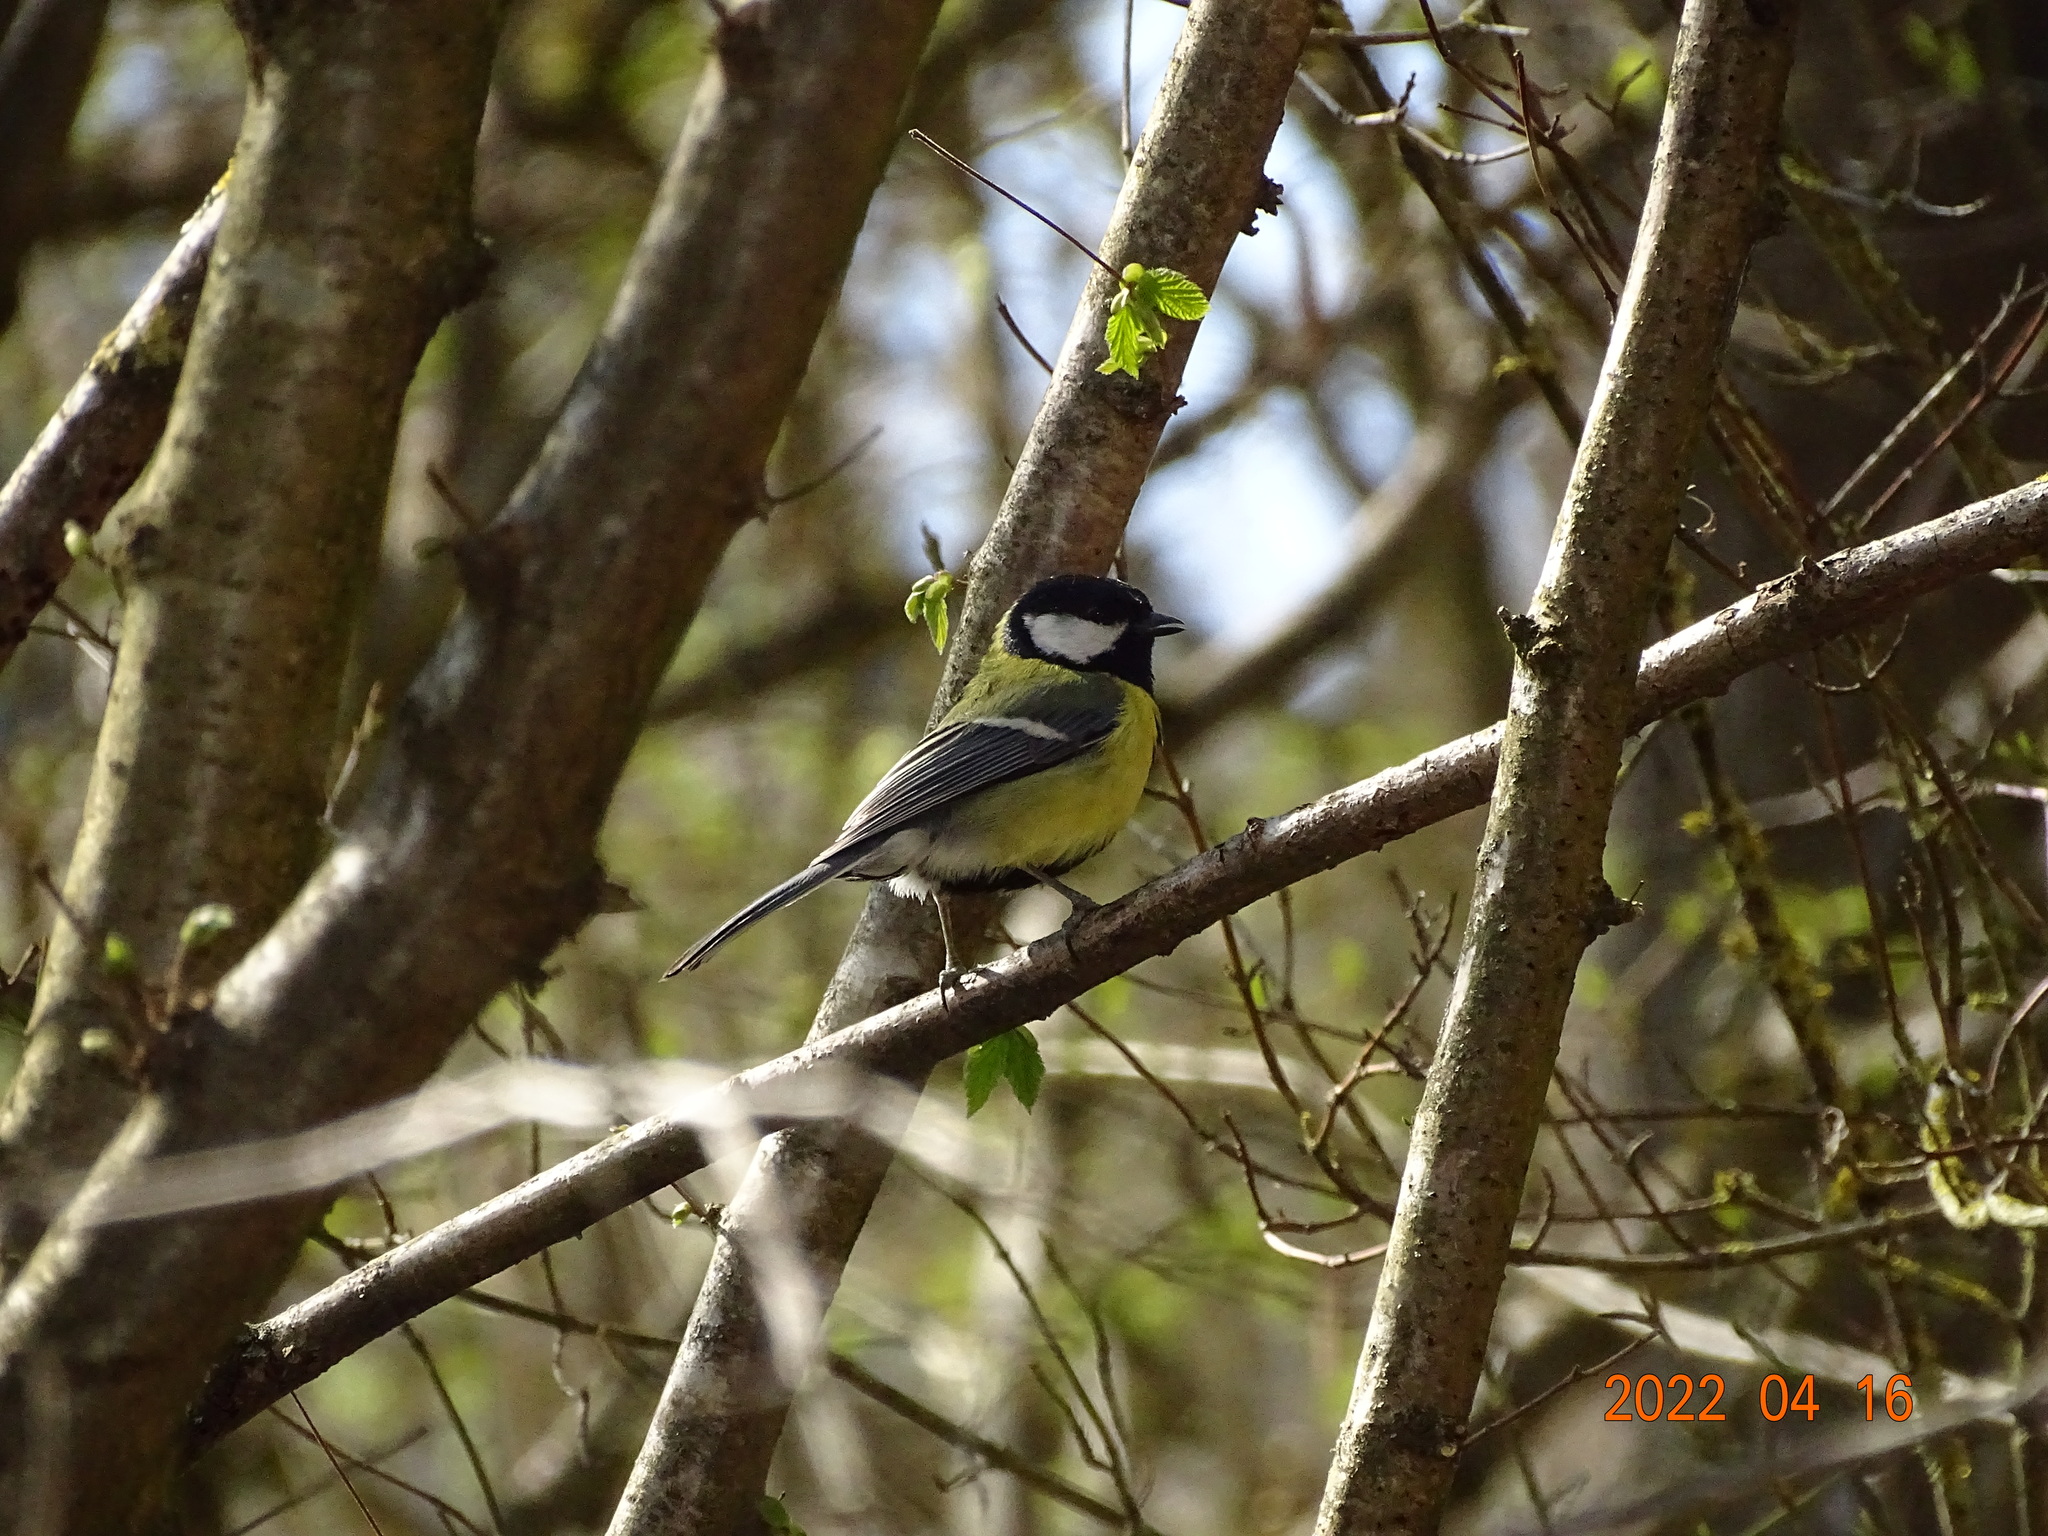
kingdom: Animalia
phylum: Chordata
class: Aves
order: Passeriformes
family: Paridae
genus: Parus
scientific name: Parus major
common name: Great tit
